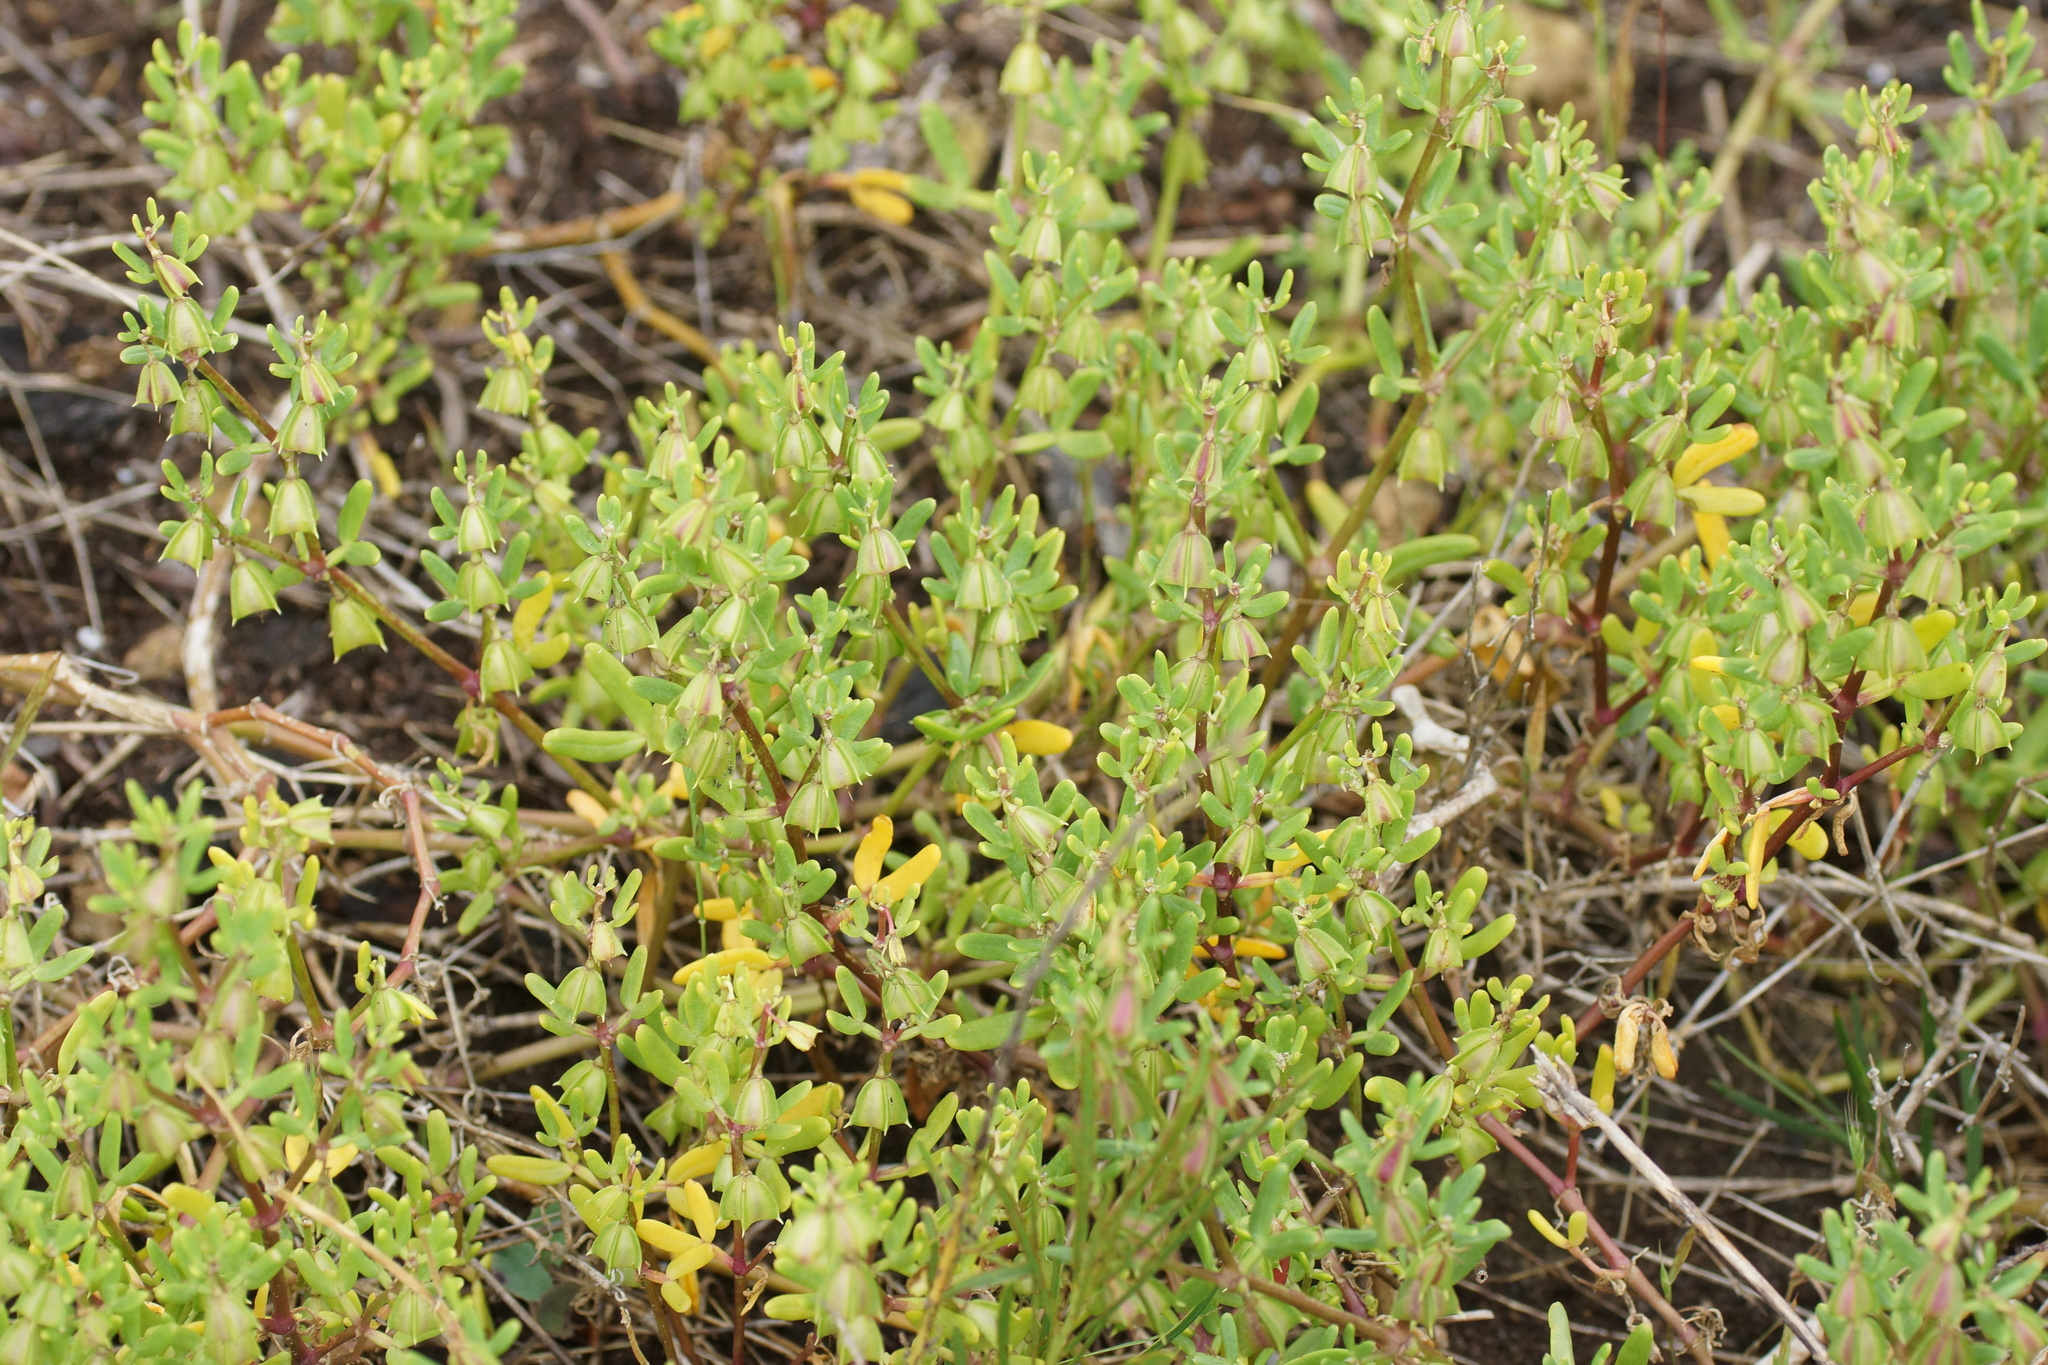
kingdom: Plantae
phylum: Tracheophyta
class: Magnoliopsida
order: Zygophyllales
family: Zygophyllaceae
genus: Roepera
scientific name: Roepera billardieri
